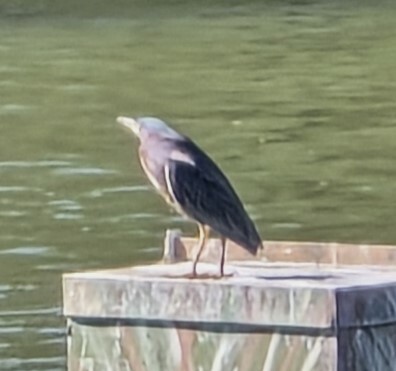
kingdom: Animalia
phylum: Chordata
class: Aves
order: Pelecaniformes
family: Ardeidae
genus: Butorides
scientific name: Butorides virescens
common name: Green heron
